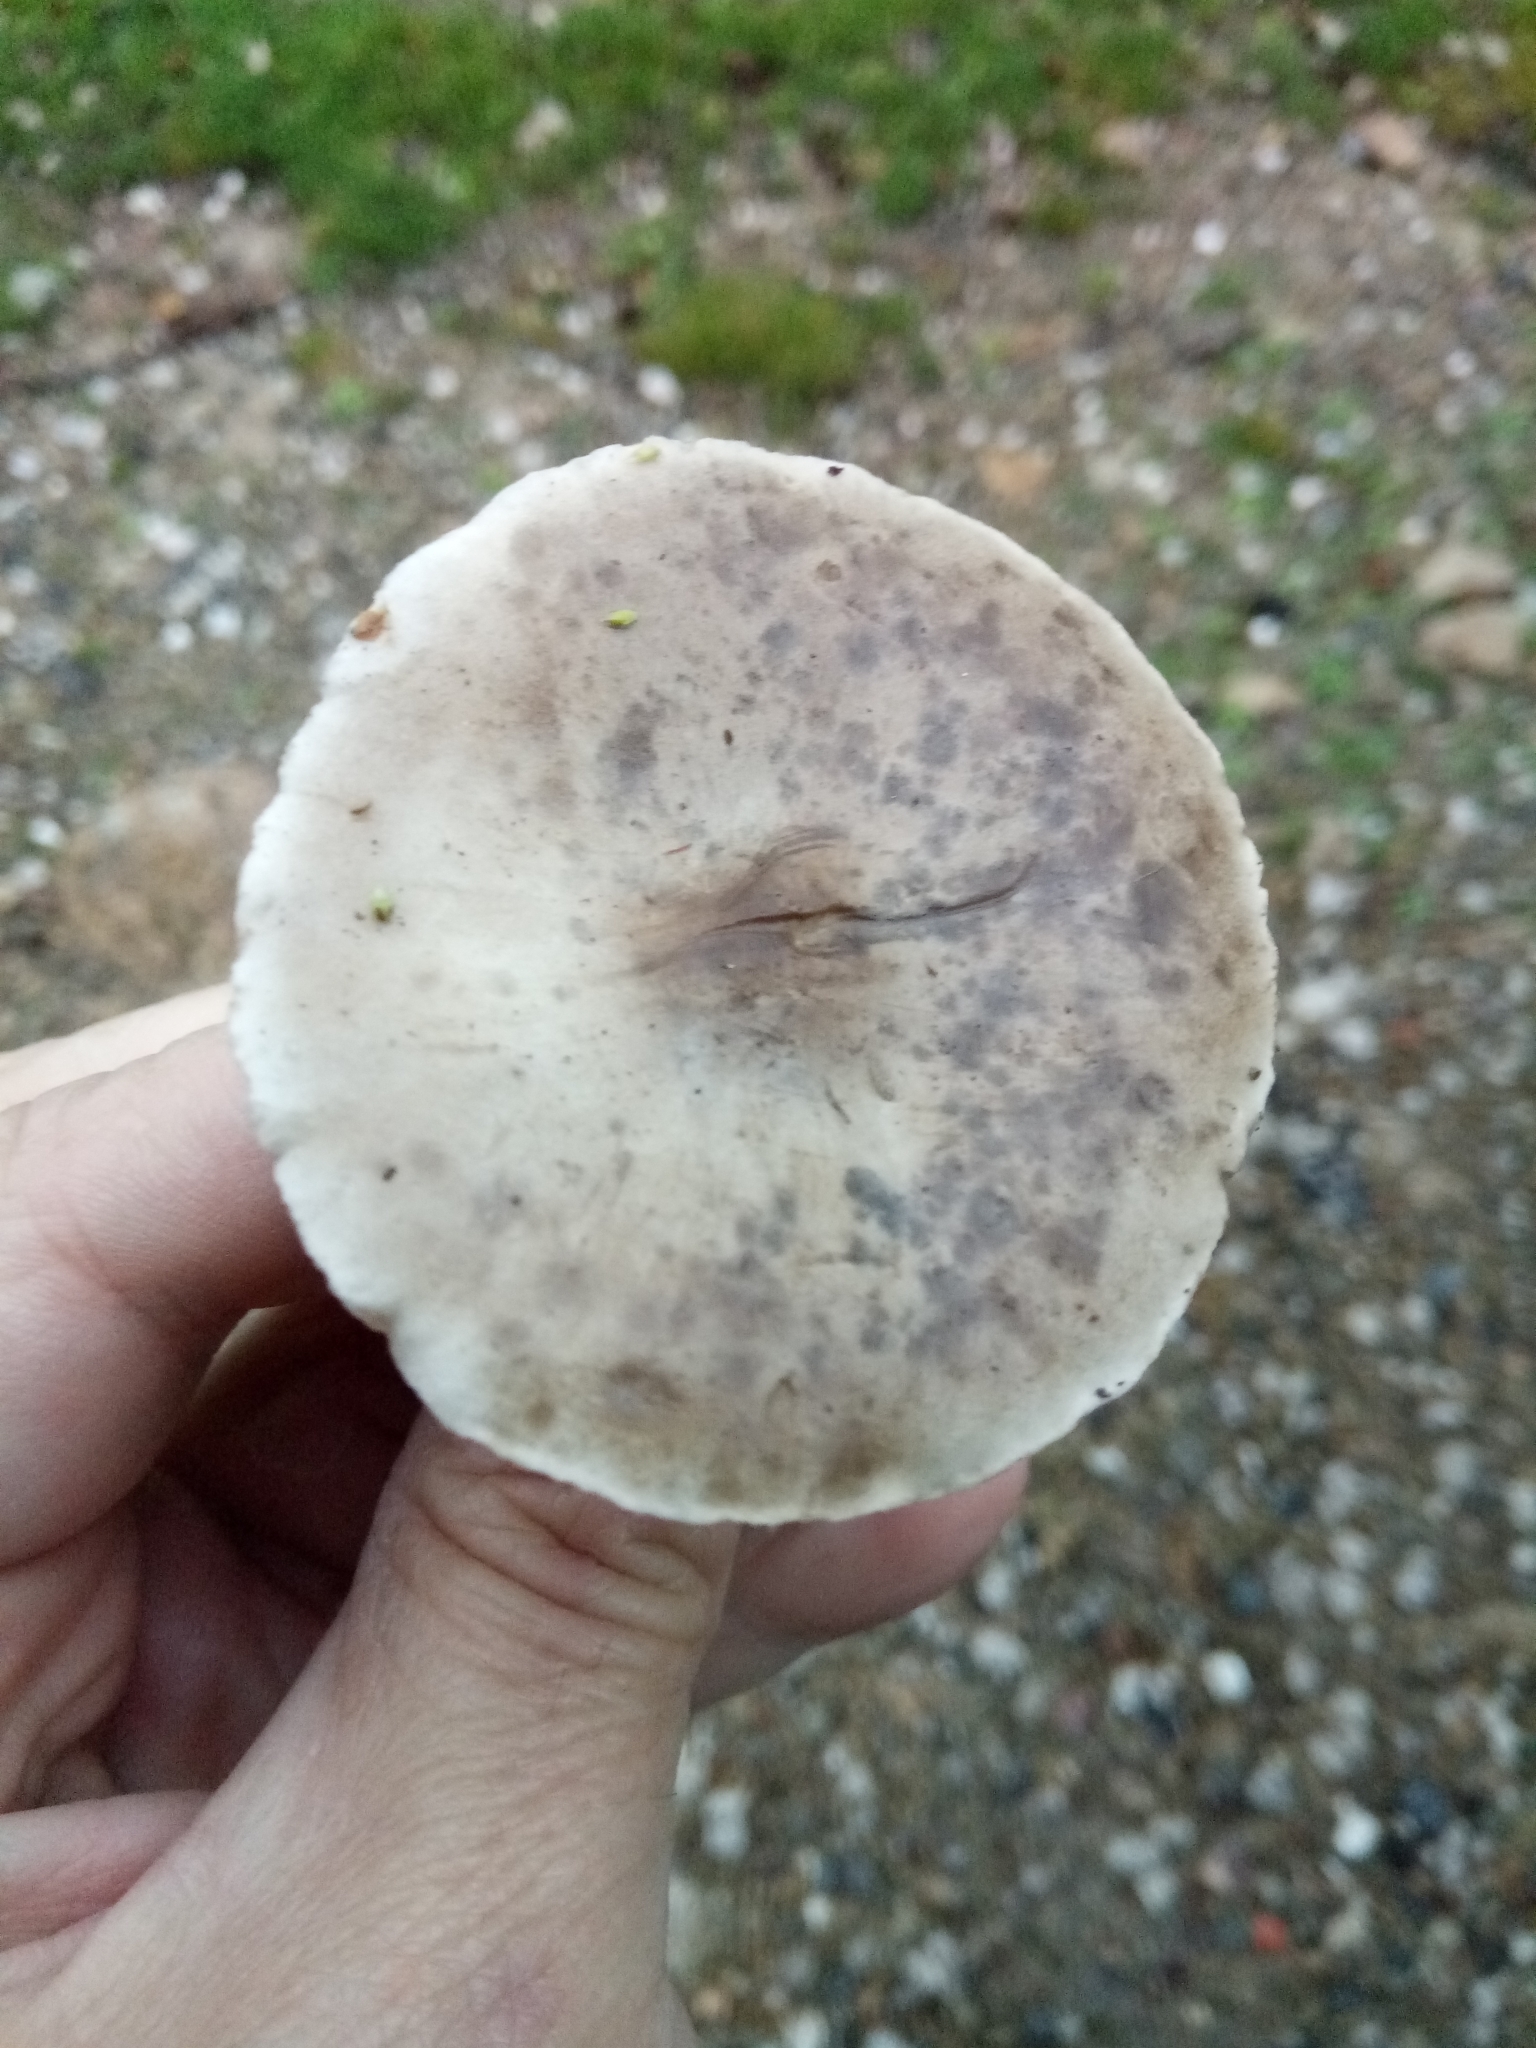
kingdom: Fungi
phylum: Basidiomycota
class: Agaricomycetes
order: Agaricales
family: Tricholomataceae
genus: Clitocybe
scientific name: Clitocybe nebularis
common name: Clouded agaric
